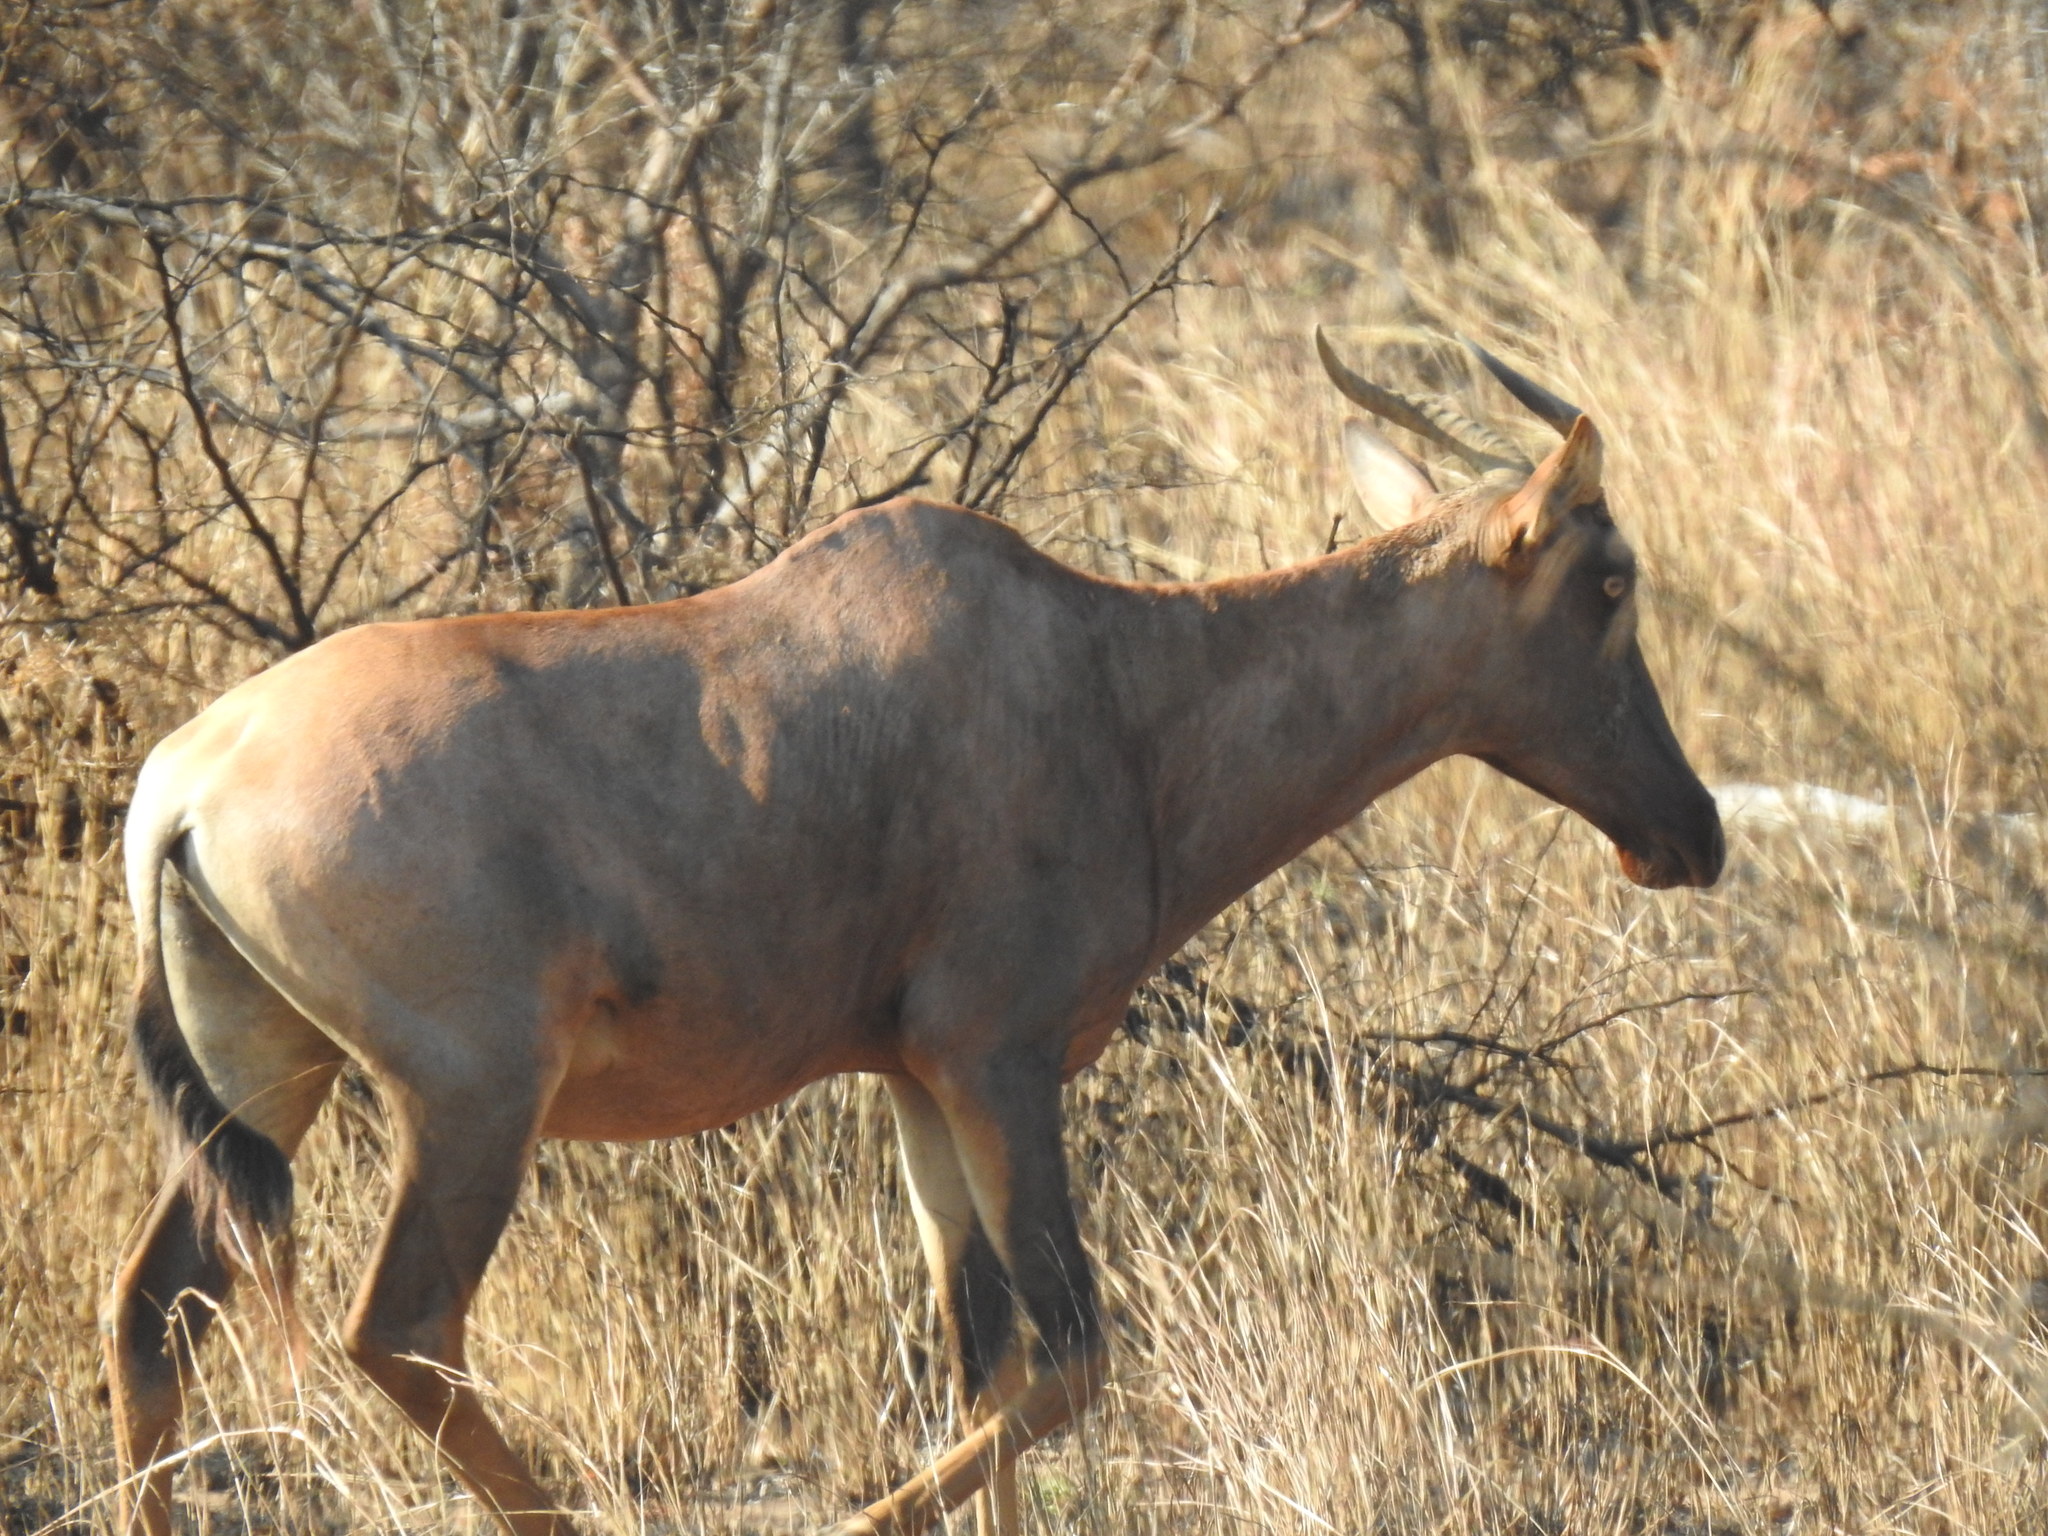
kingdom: Animalia
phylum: Chordata
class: Mammalia
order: Artiodactyla
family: Bovidae
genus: Damaliscus
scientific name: Damaliscus lunatus
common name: Common tsessebe
